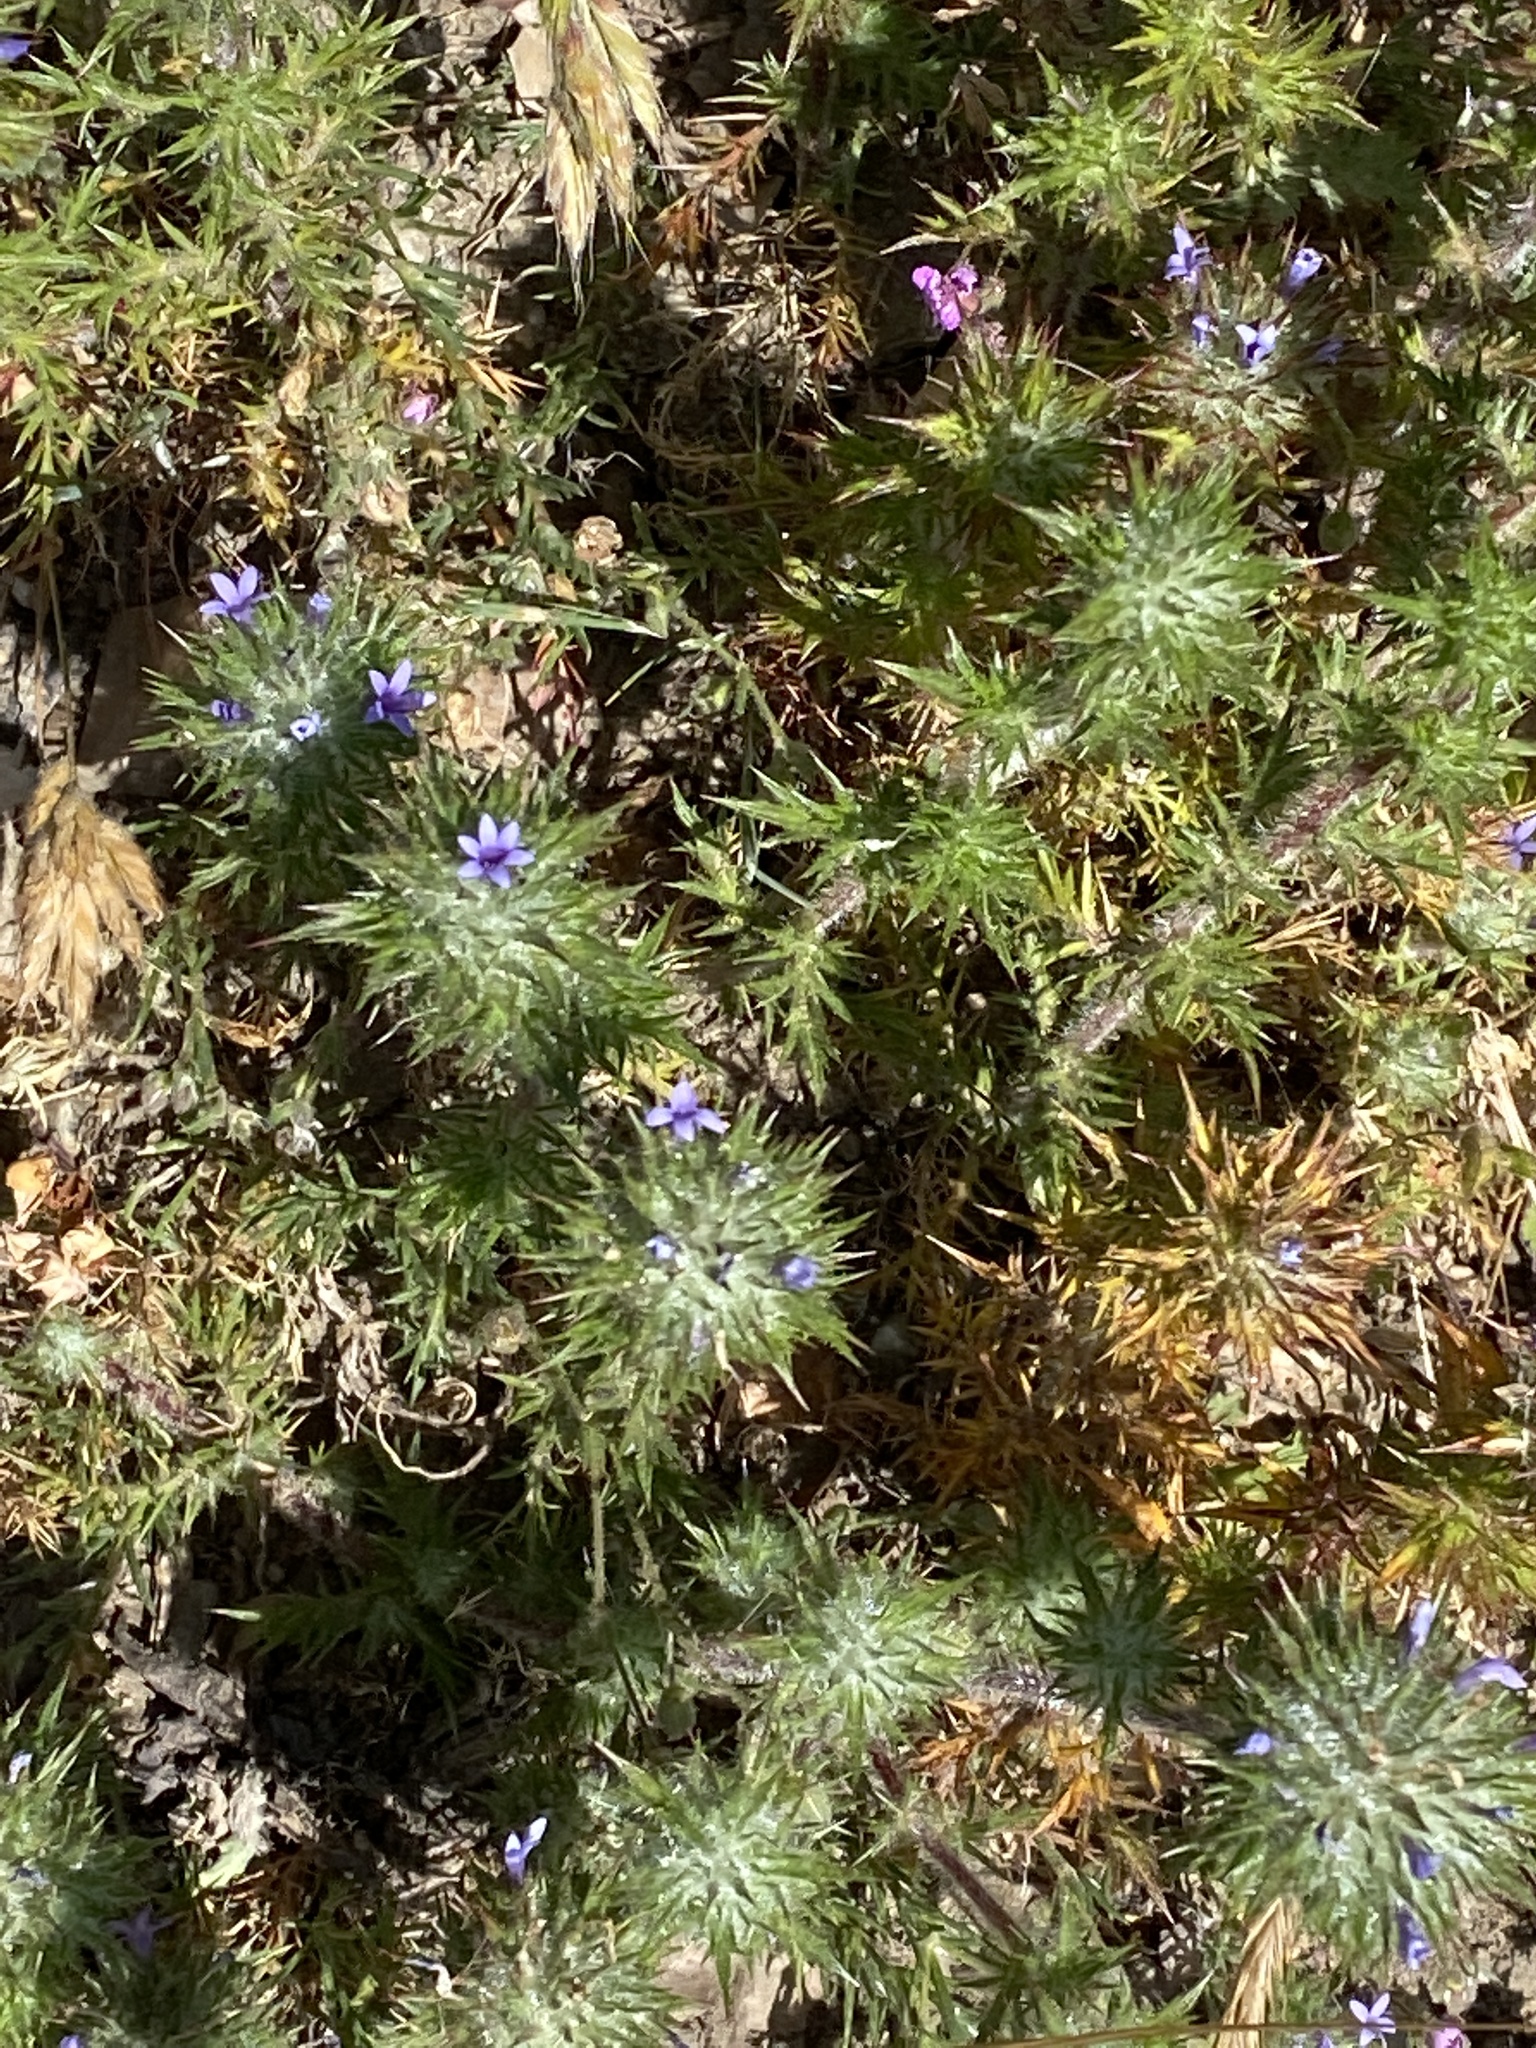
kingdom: Plantae
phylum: Tracheophyta
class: Magnoliopsida
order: Ericales
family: Polemoniaceae
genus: Navarretia
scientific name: Navarretia squarrosa
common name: Skunkweed
